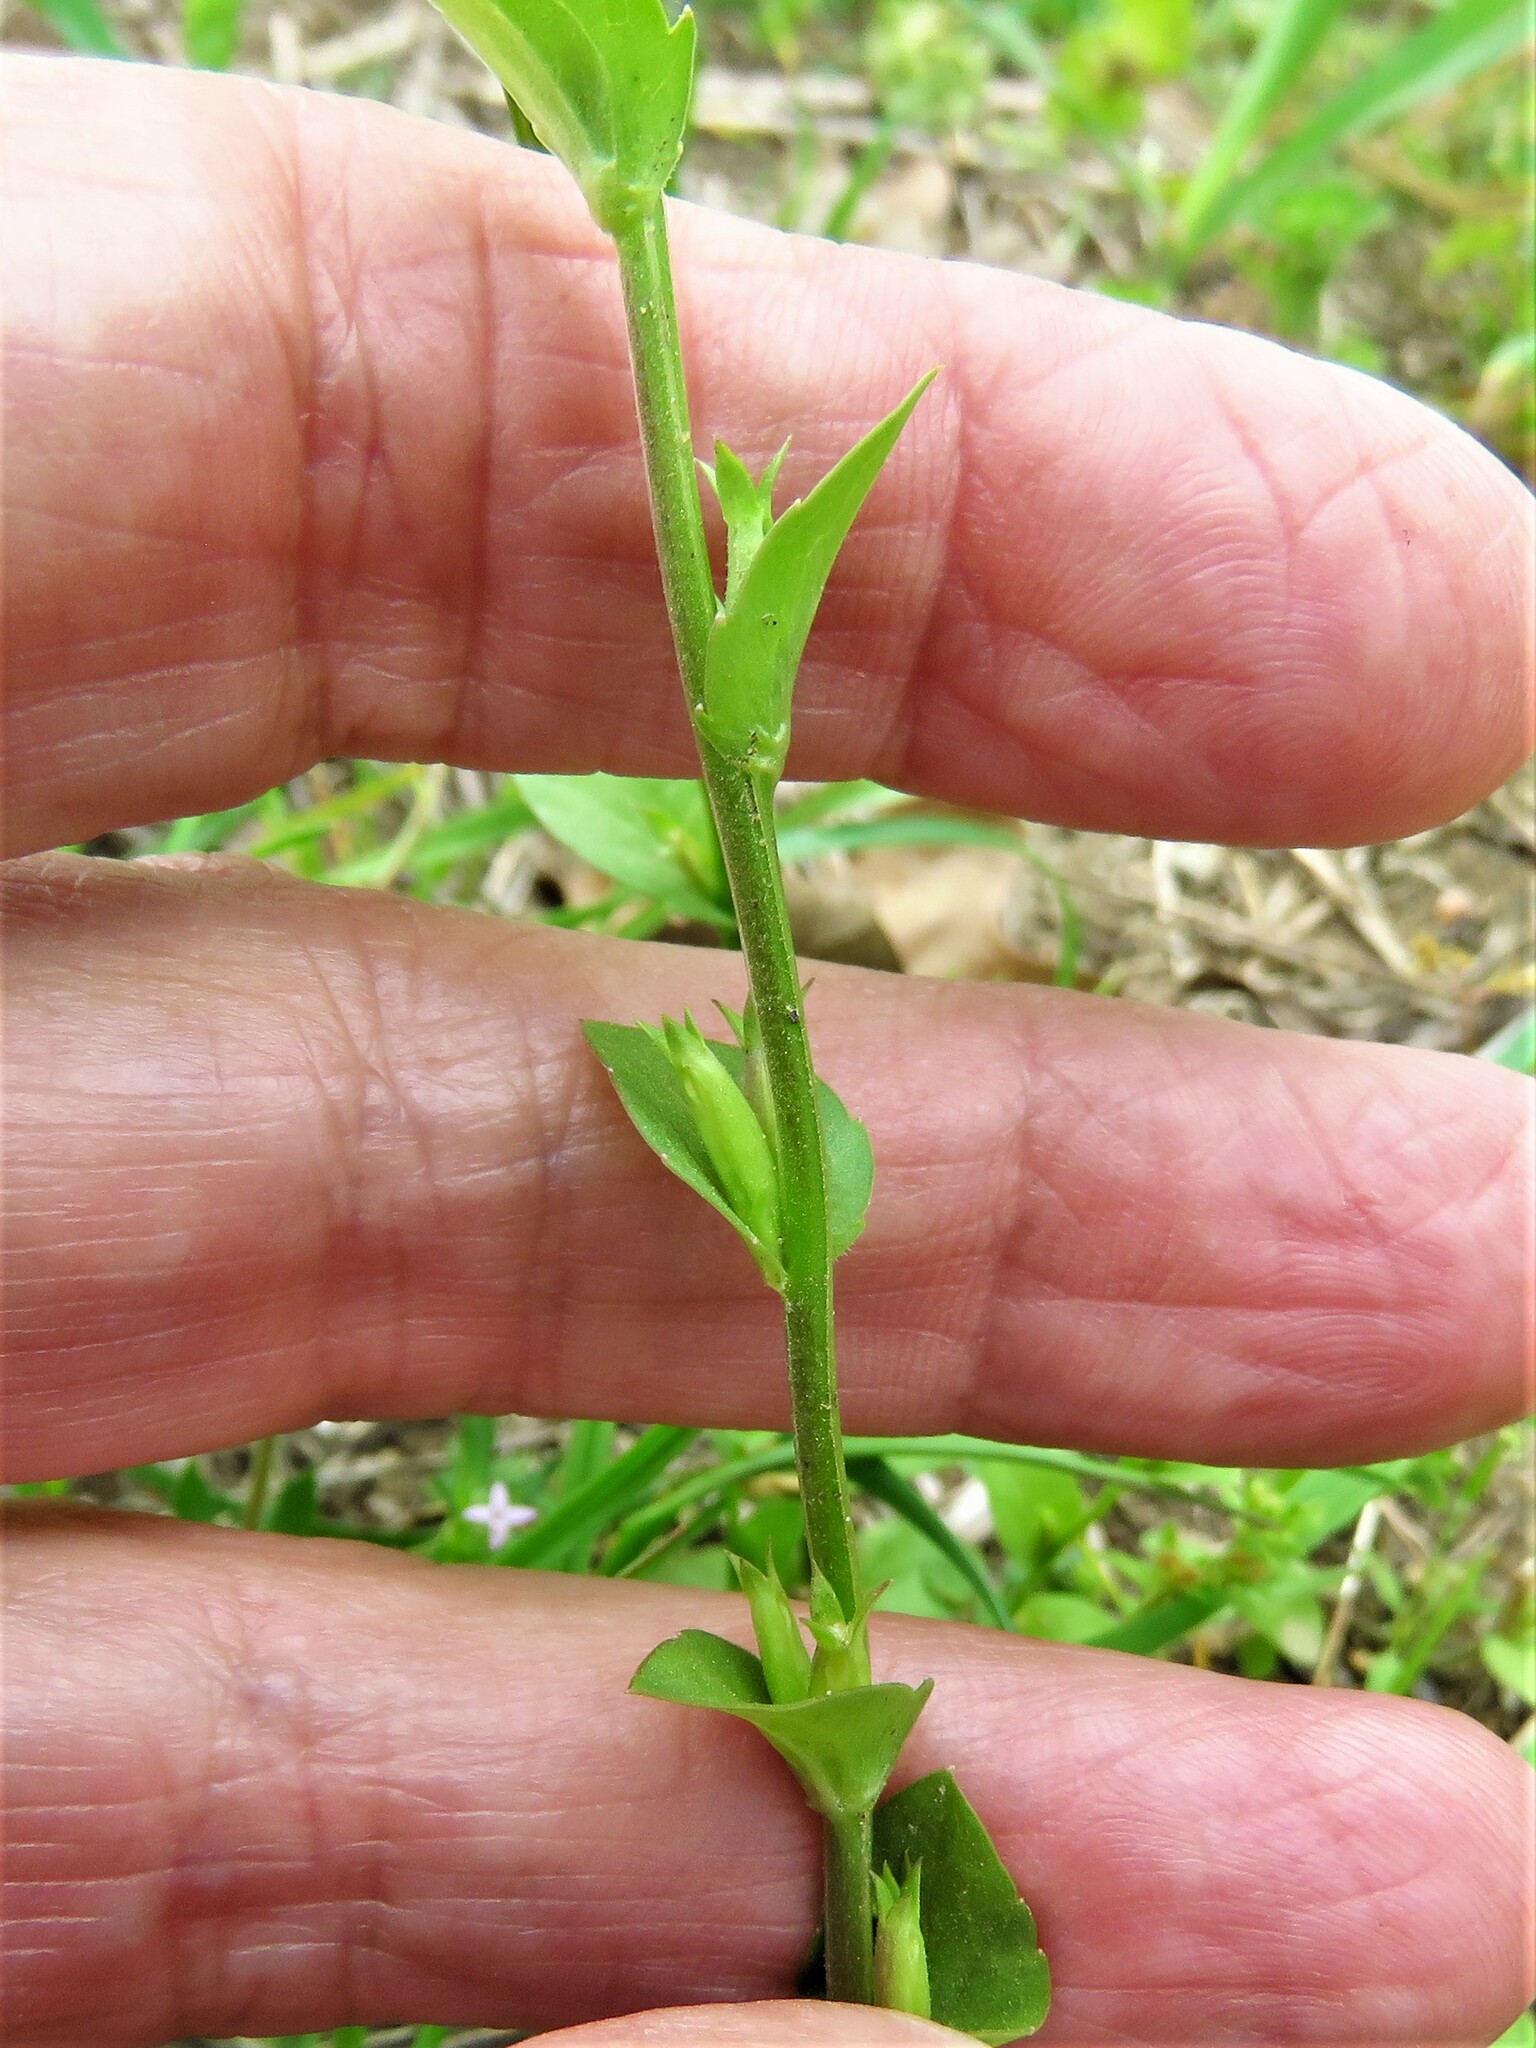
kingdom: Plantae
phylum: Tracheophyta
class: Magnoliopsida
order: Asterales
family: Campanulaceae
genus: Triodanis
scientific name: Triodanis biflora
